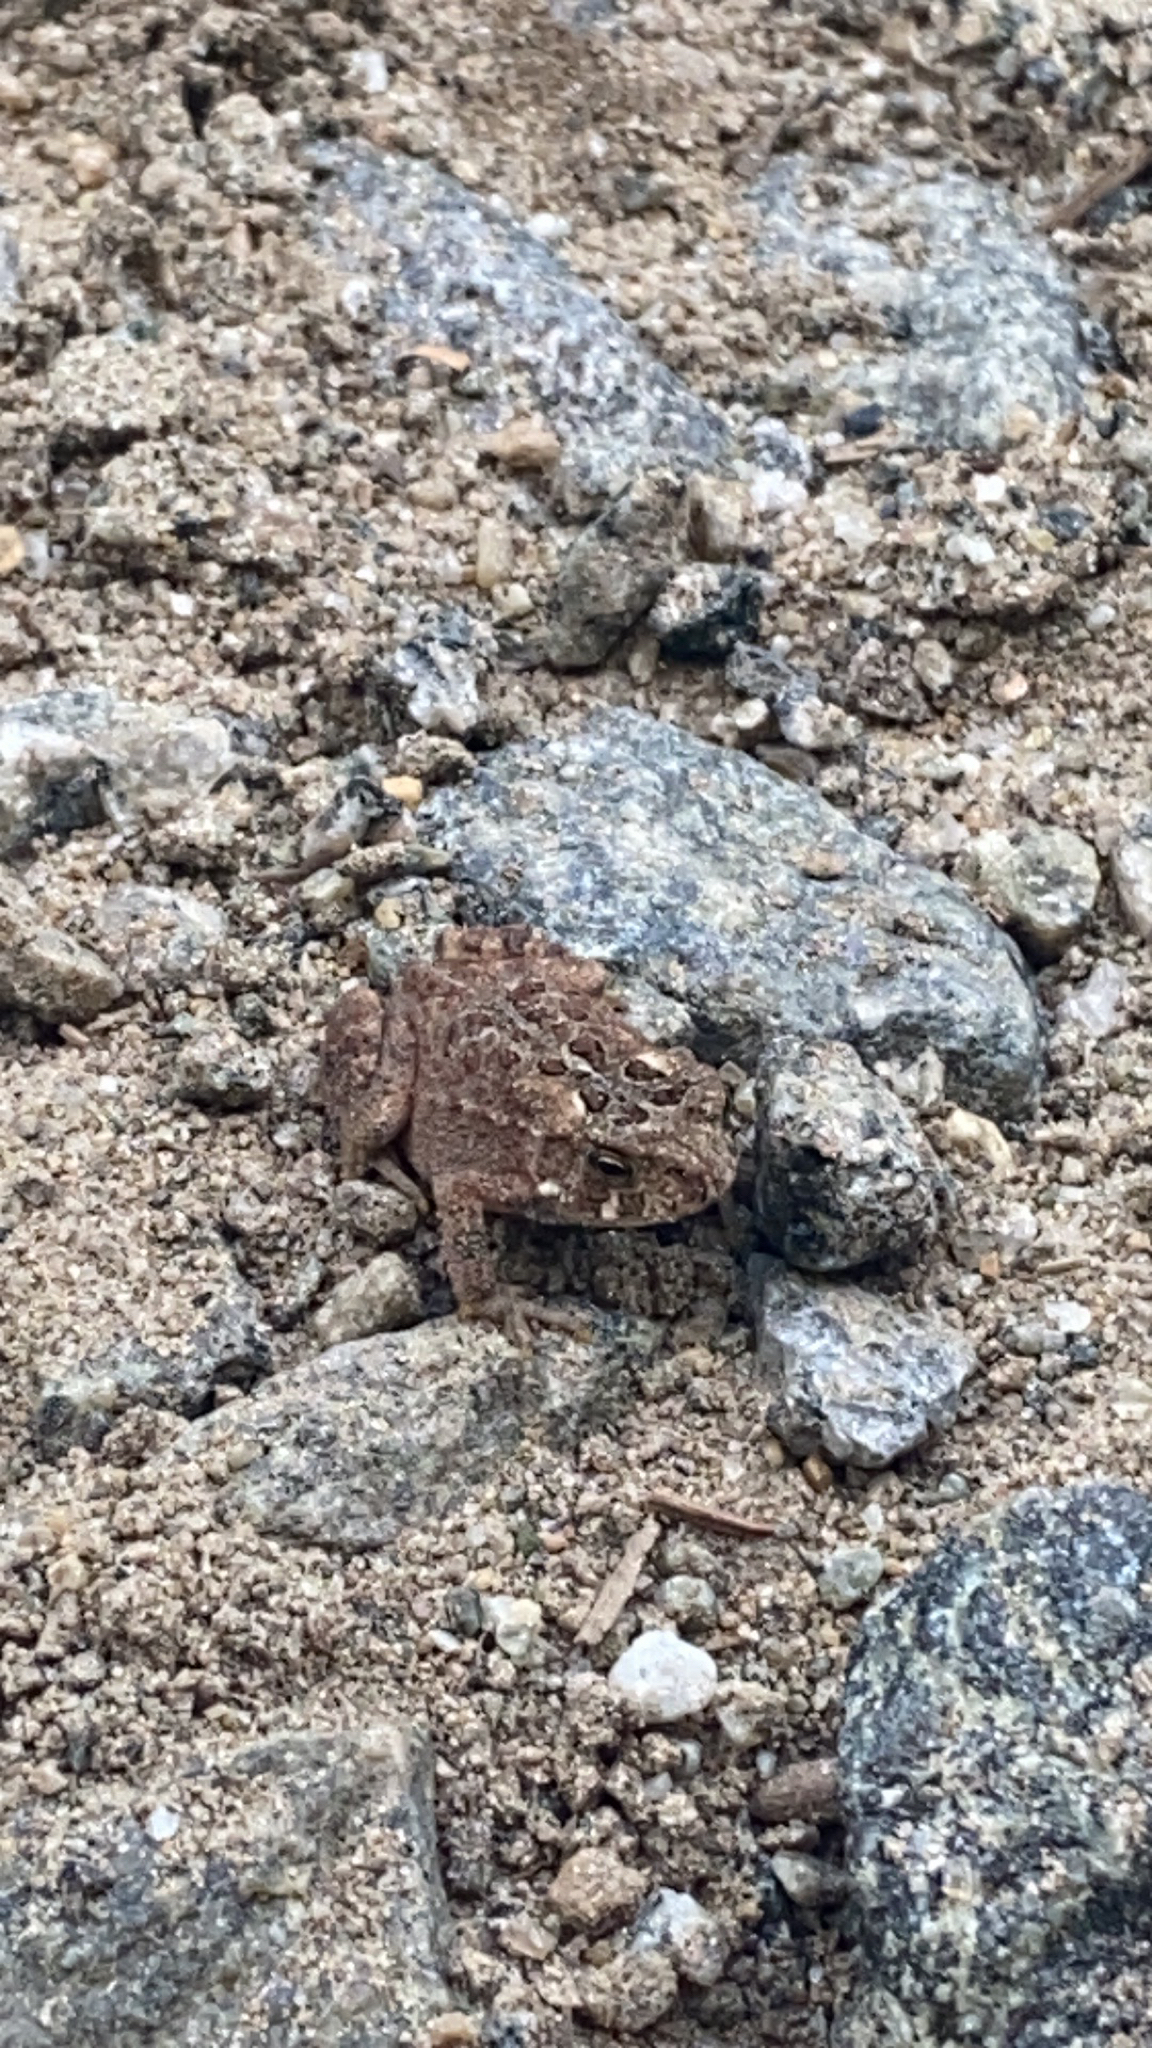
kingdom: Animalia
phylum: Chordata
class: Amphibia
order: Anura
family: Bufonidae
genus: Anaxyrus
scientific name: Anaxyrus americanus
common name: American toad
